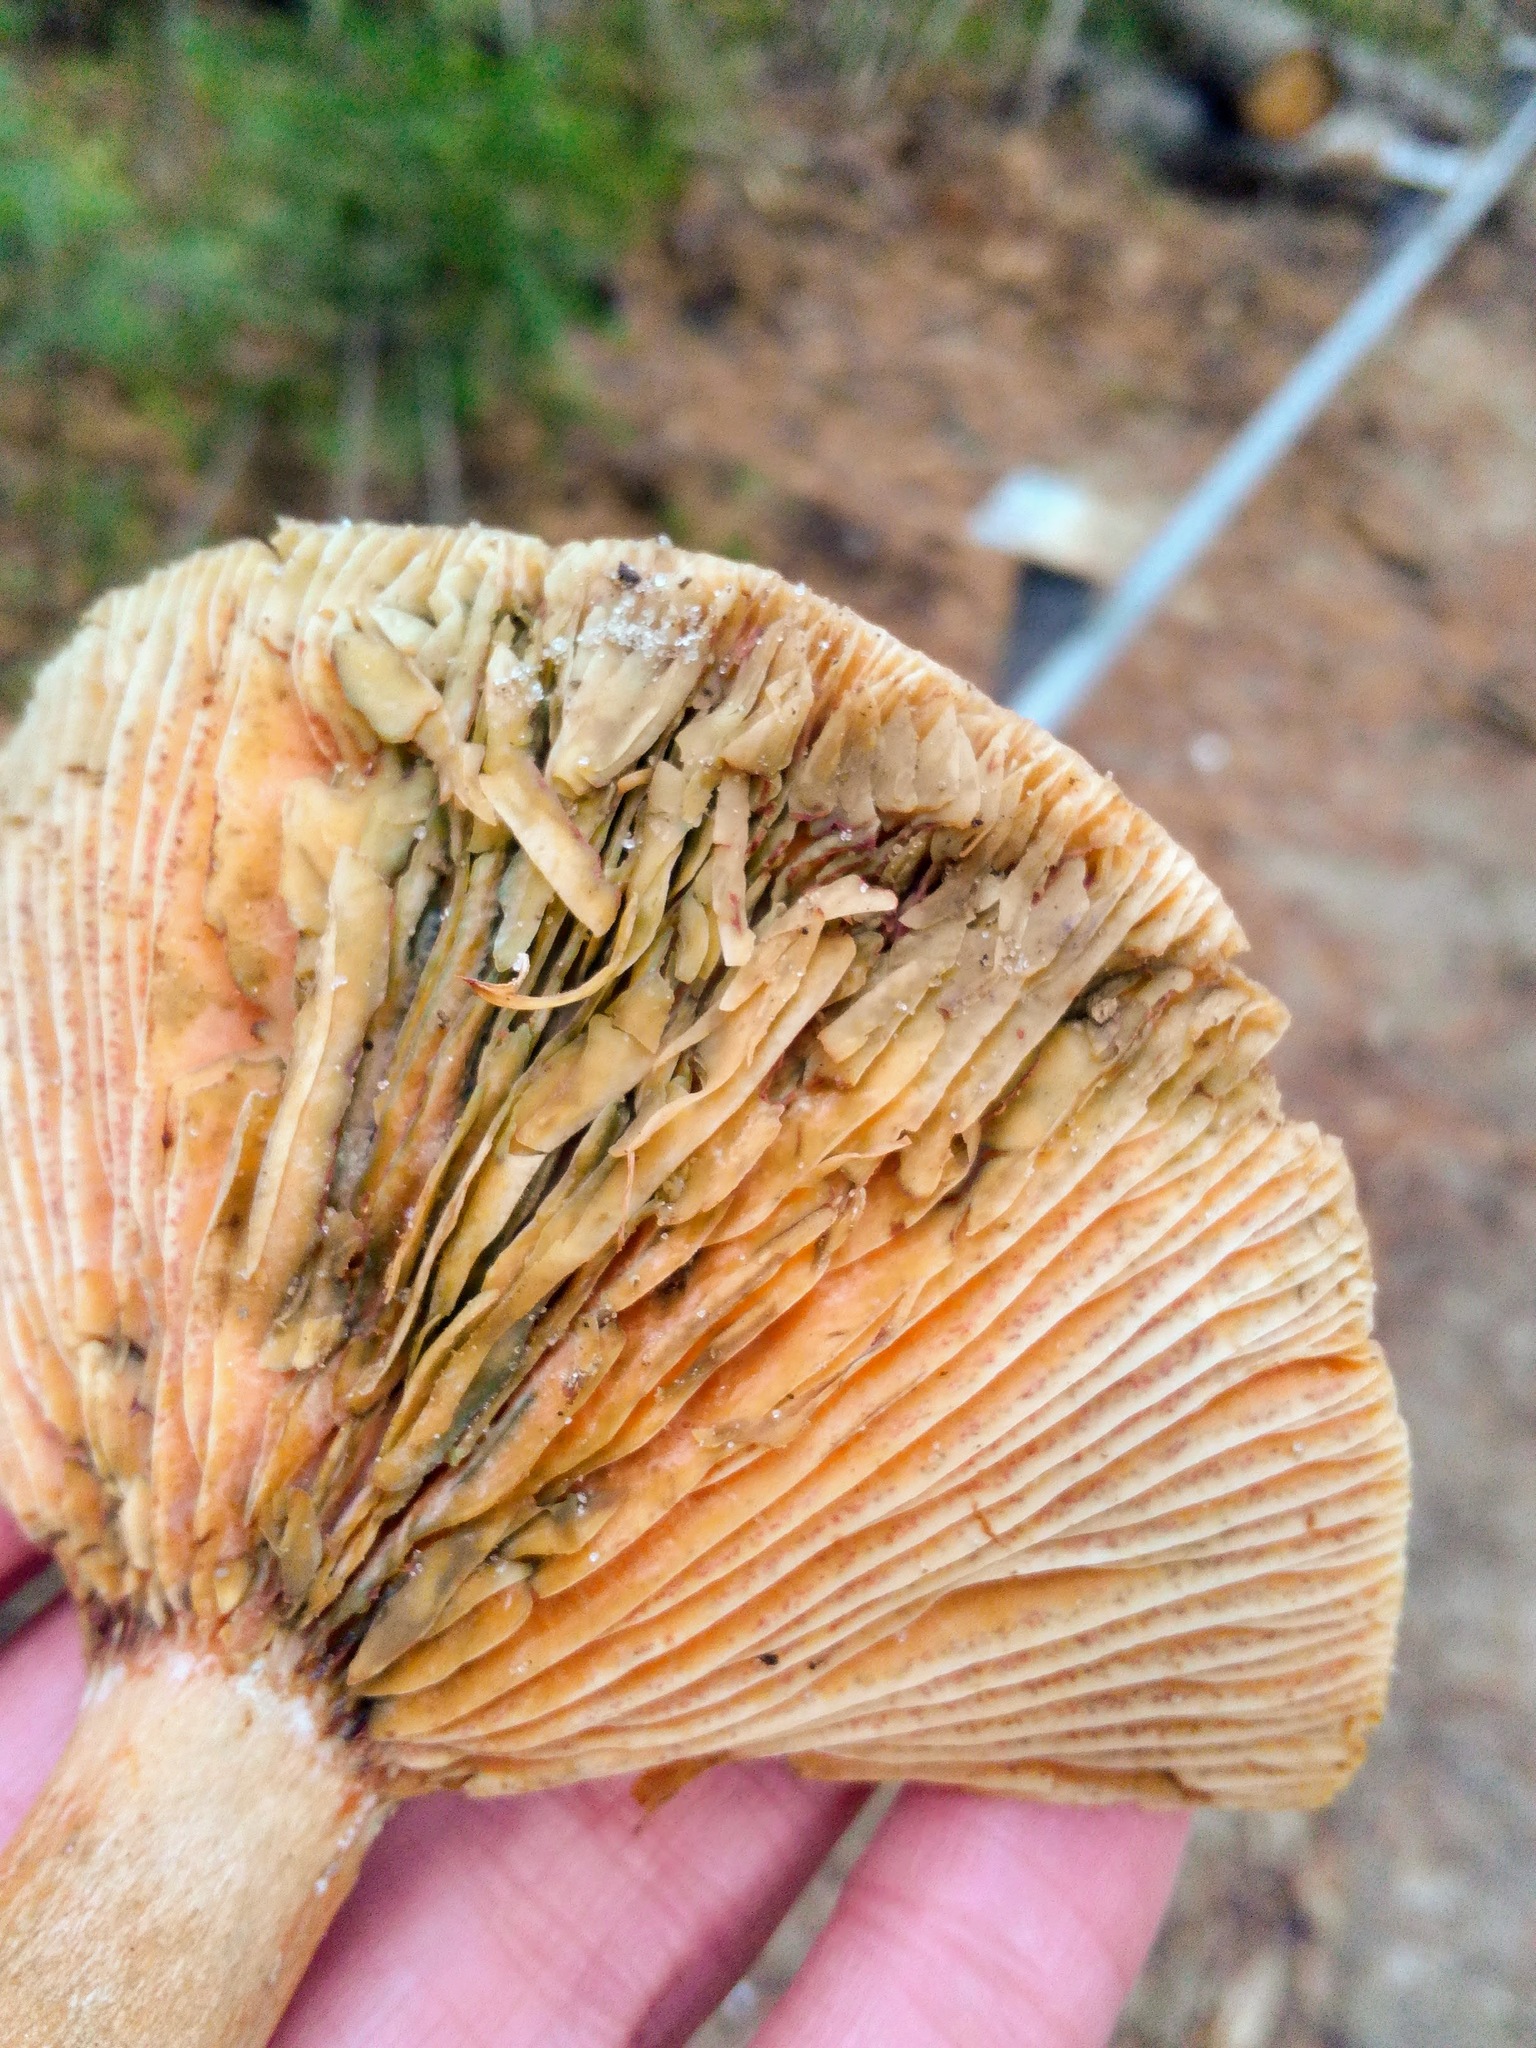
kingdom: Fungi
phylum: Basidiomycota
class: Agaricomycetes
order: Russulales
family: Russulaceae
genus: Lactarius
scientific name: Lactarius deliciosus
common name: Saffron milk-cap
